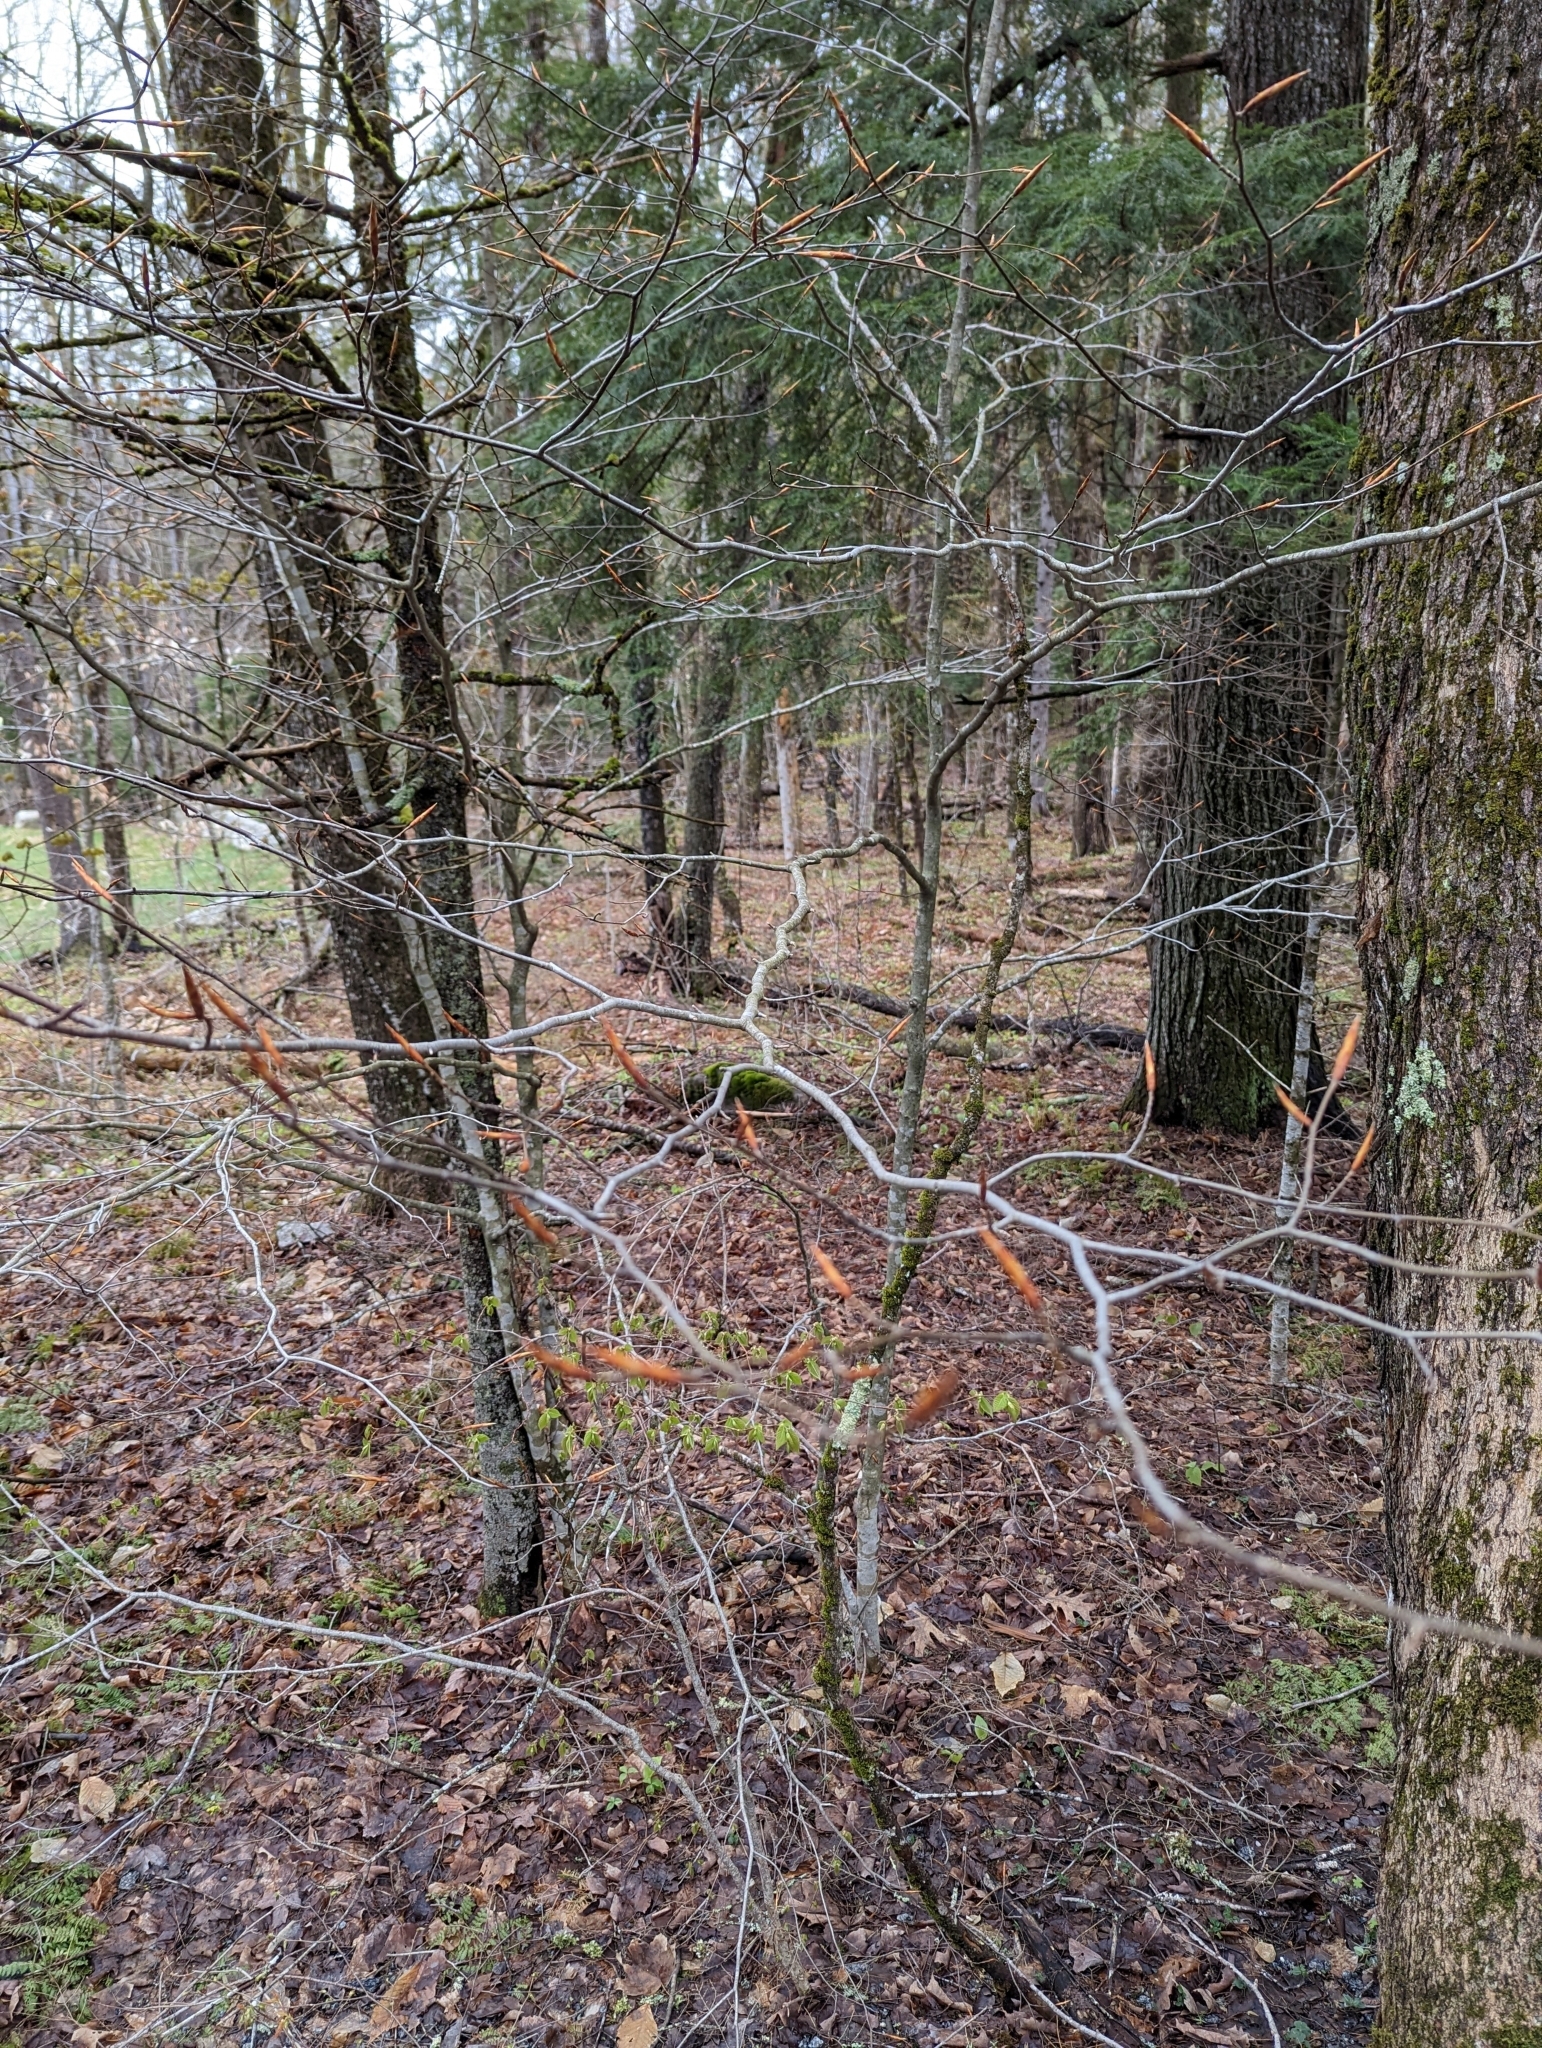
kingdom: Plantae
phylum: Tracheophyta
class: Magnoliopsida
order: Fagales
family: Fagaceae
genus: Fagus
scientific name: Fagus grandifolia
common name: American beech
